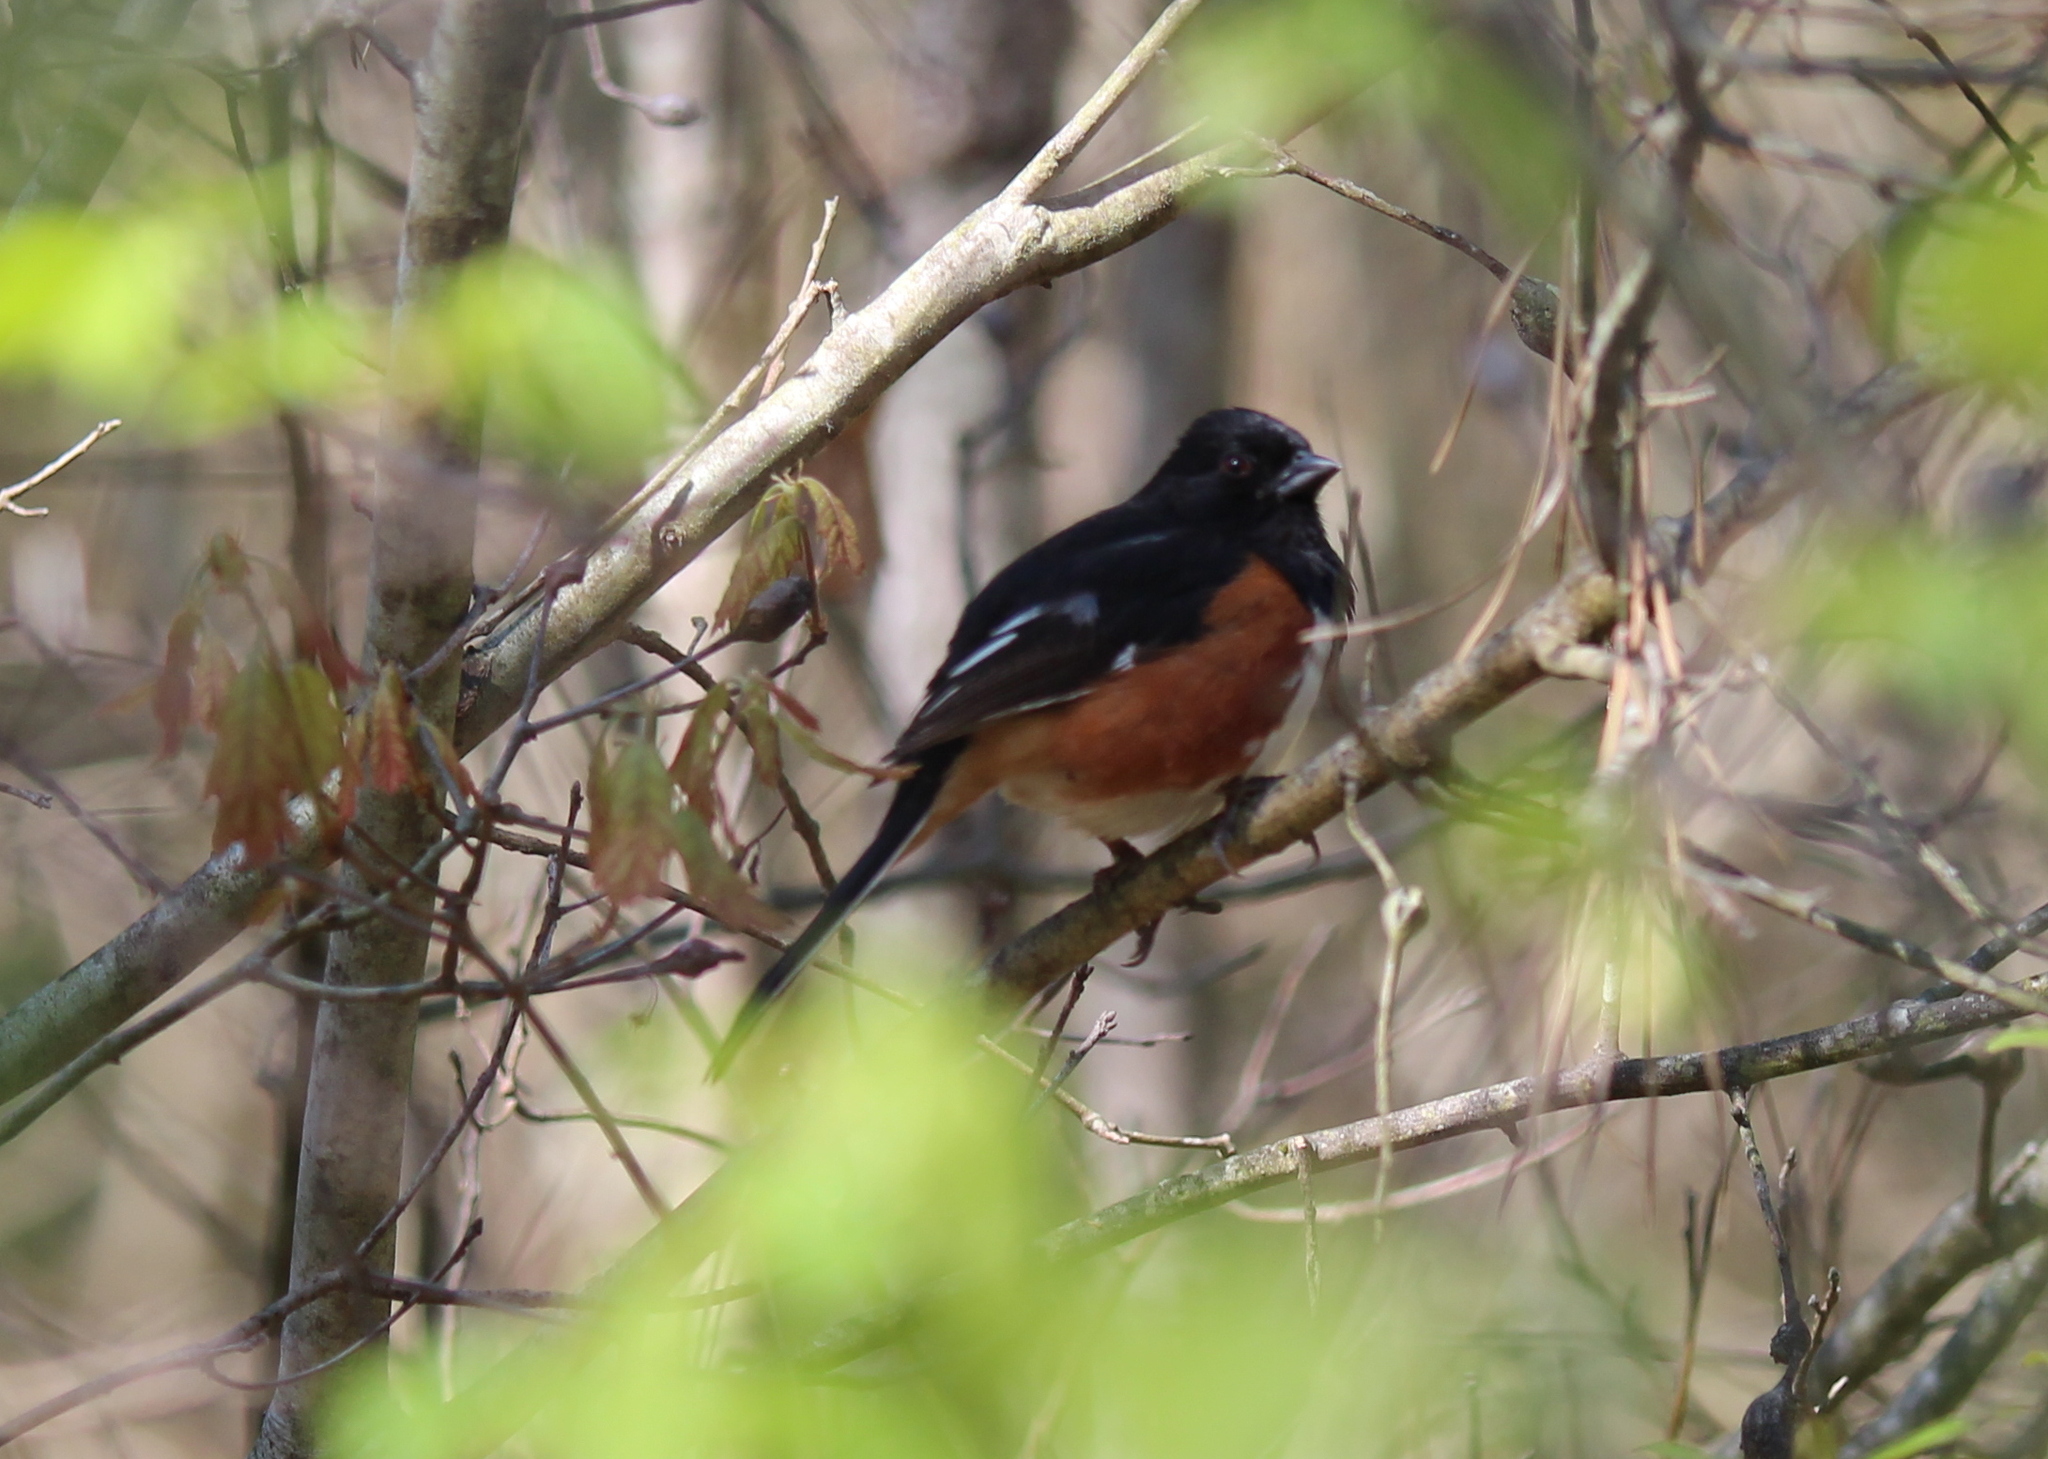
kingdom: Animalia
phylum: Chordata
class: Aves
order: Passeriformes
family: Passerellidae
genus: Pipilo
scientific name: Pipilo erythrophthalmus
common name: Eastern towhee
